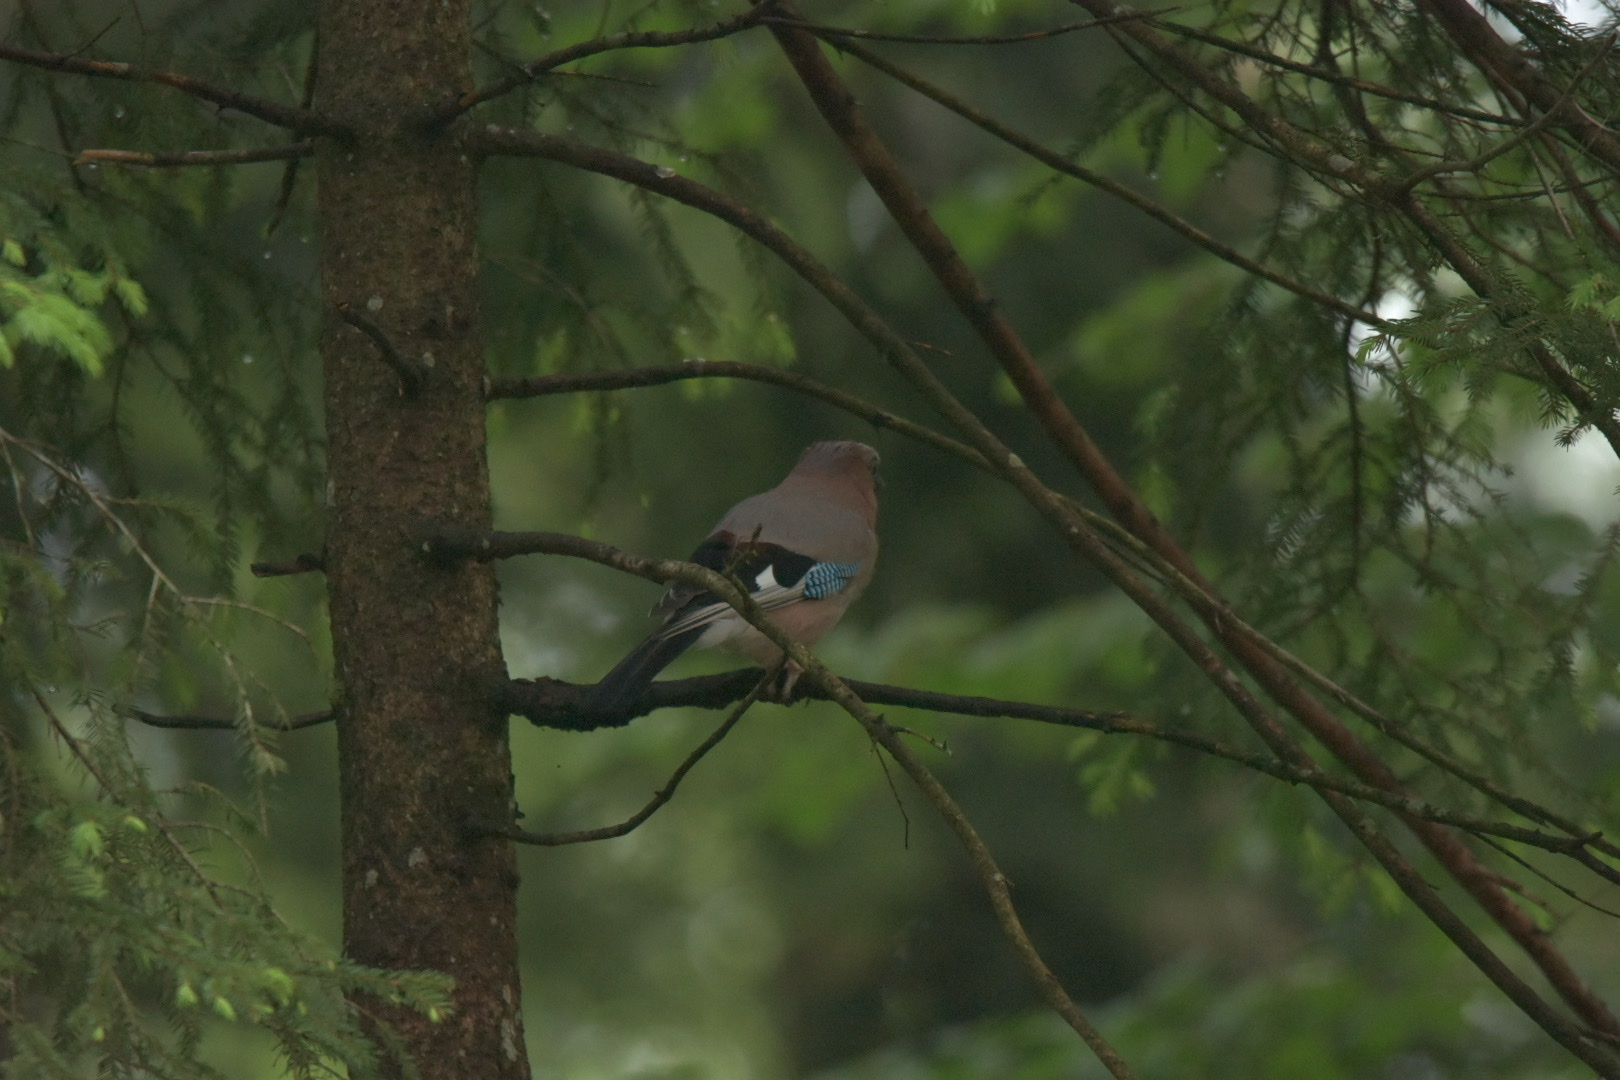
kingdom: Animalia
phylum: Chordata
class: Aves
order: Passeriformes
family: Corvidae
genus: Garrulus
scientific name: Garrulus glandarius
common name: Eurasian jay
